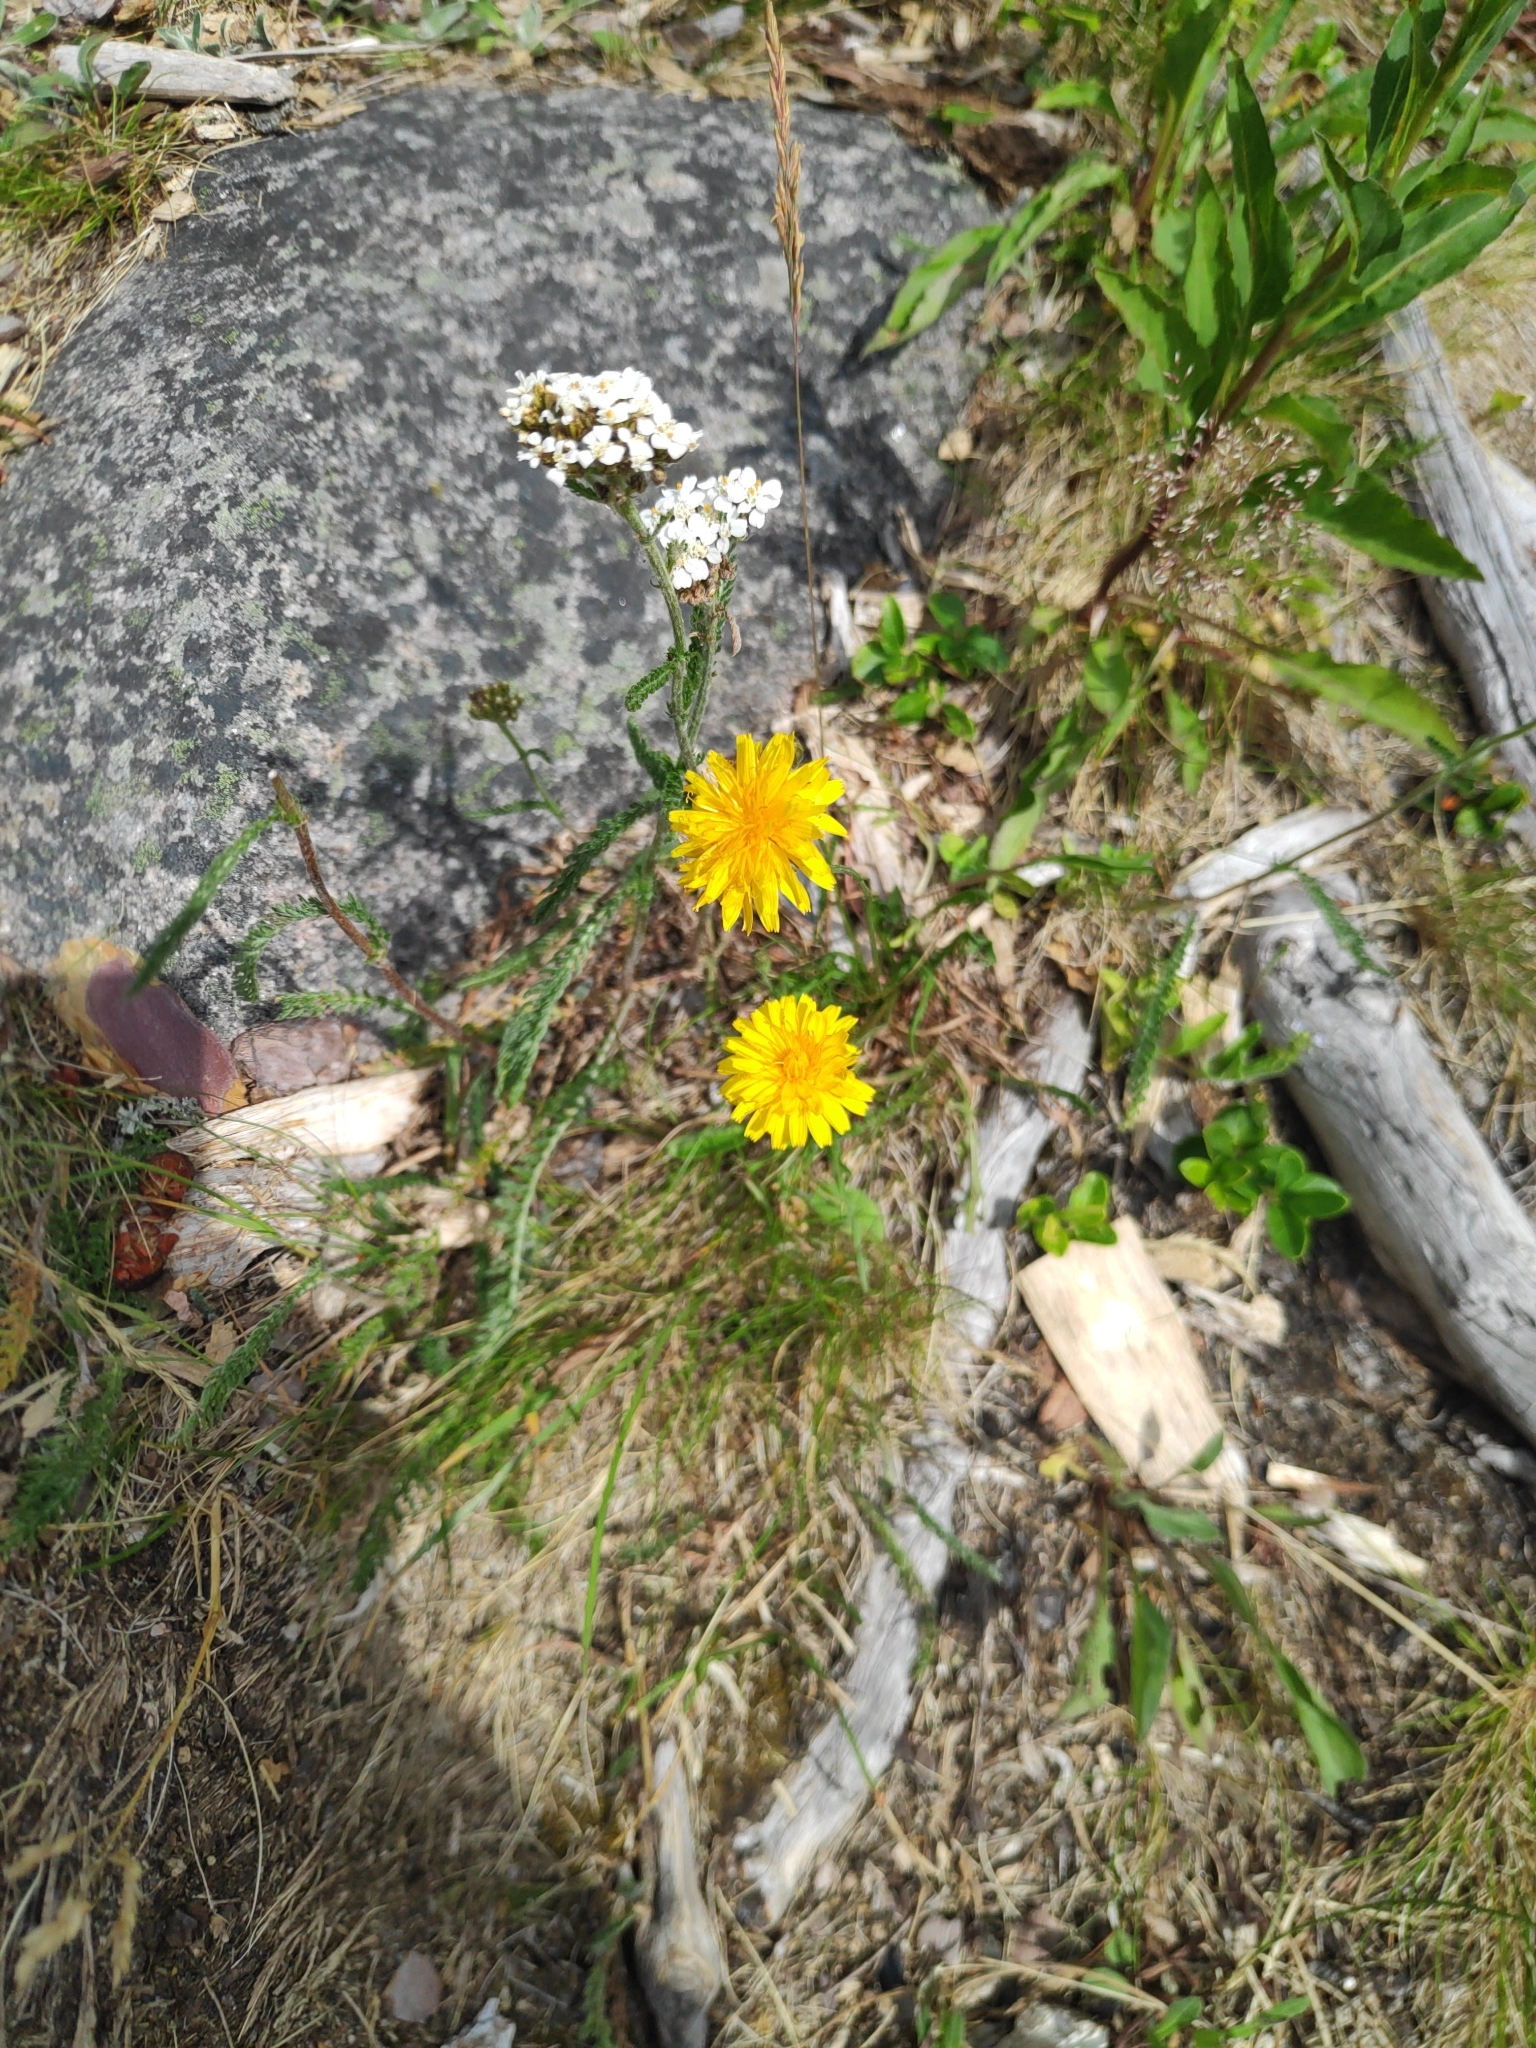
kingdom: Plantae
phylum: Tracheophyta
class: Magnoliopsida
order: Asterales
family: Asteraceae
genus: Scorzoneroides
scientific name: Scorzoneroides autumnalis
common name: Autumn hawkbit
